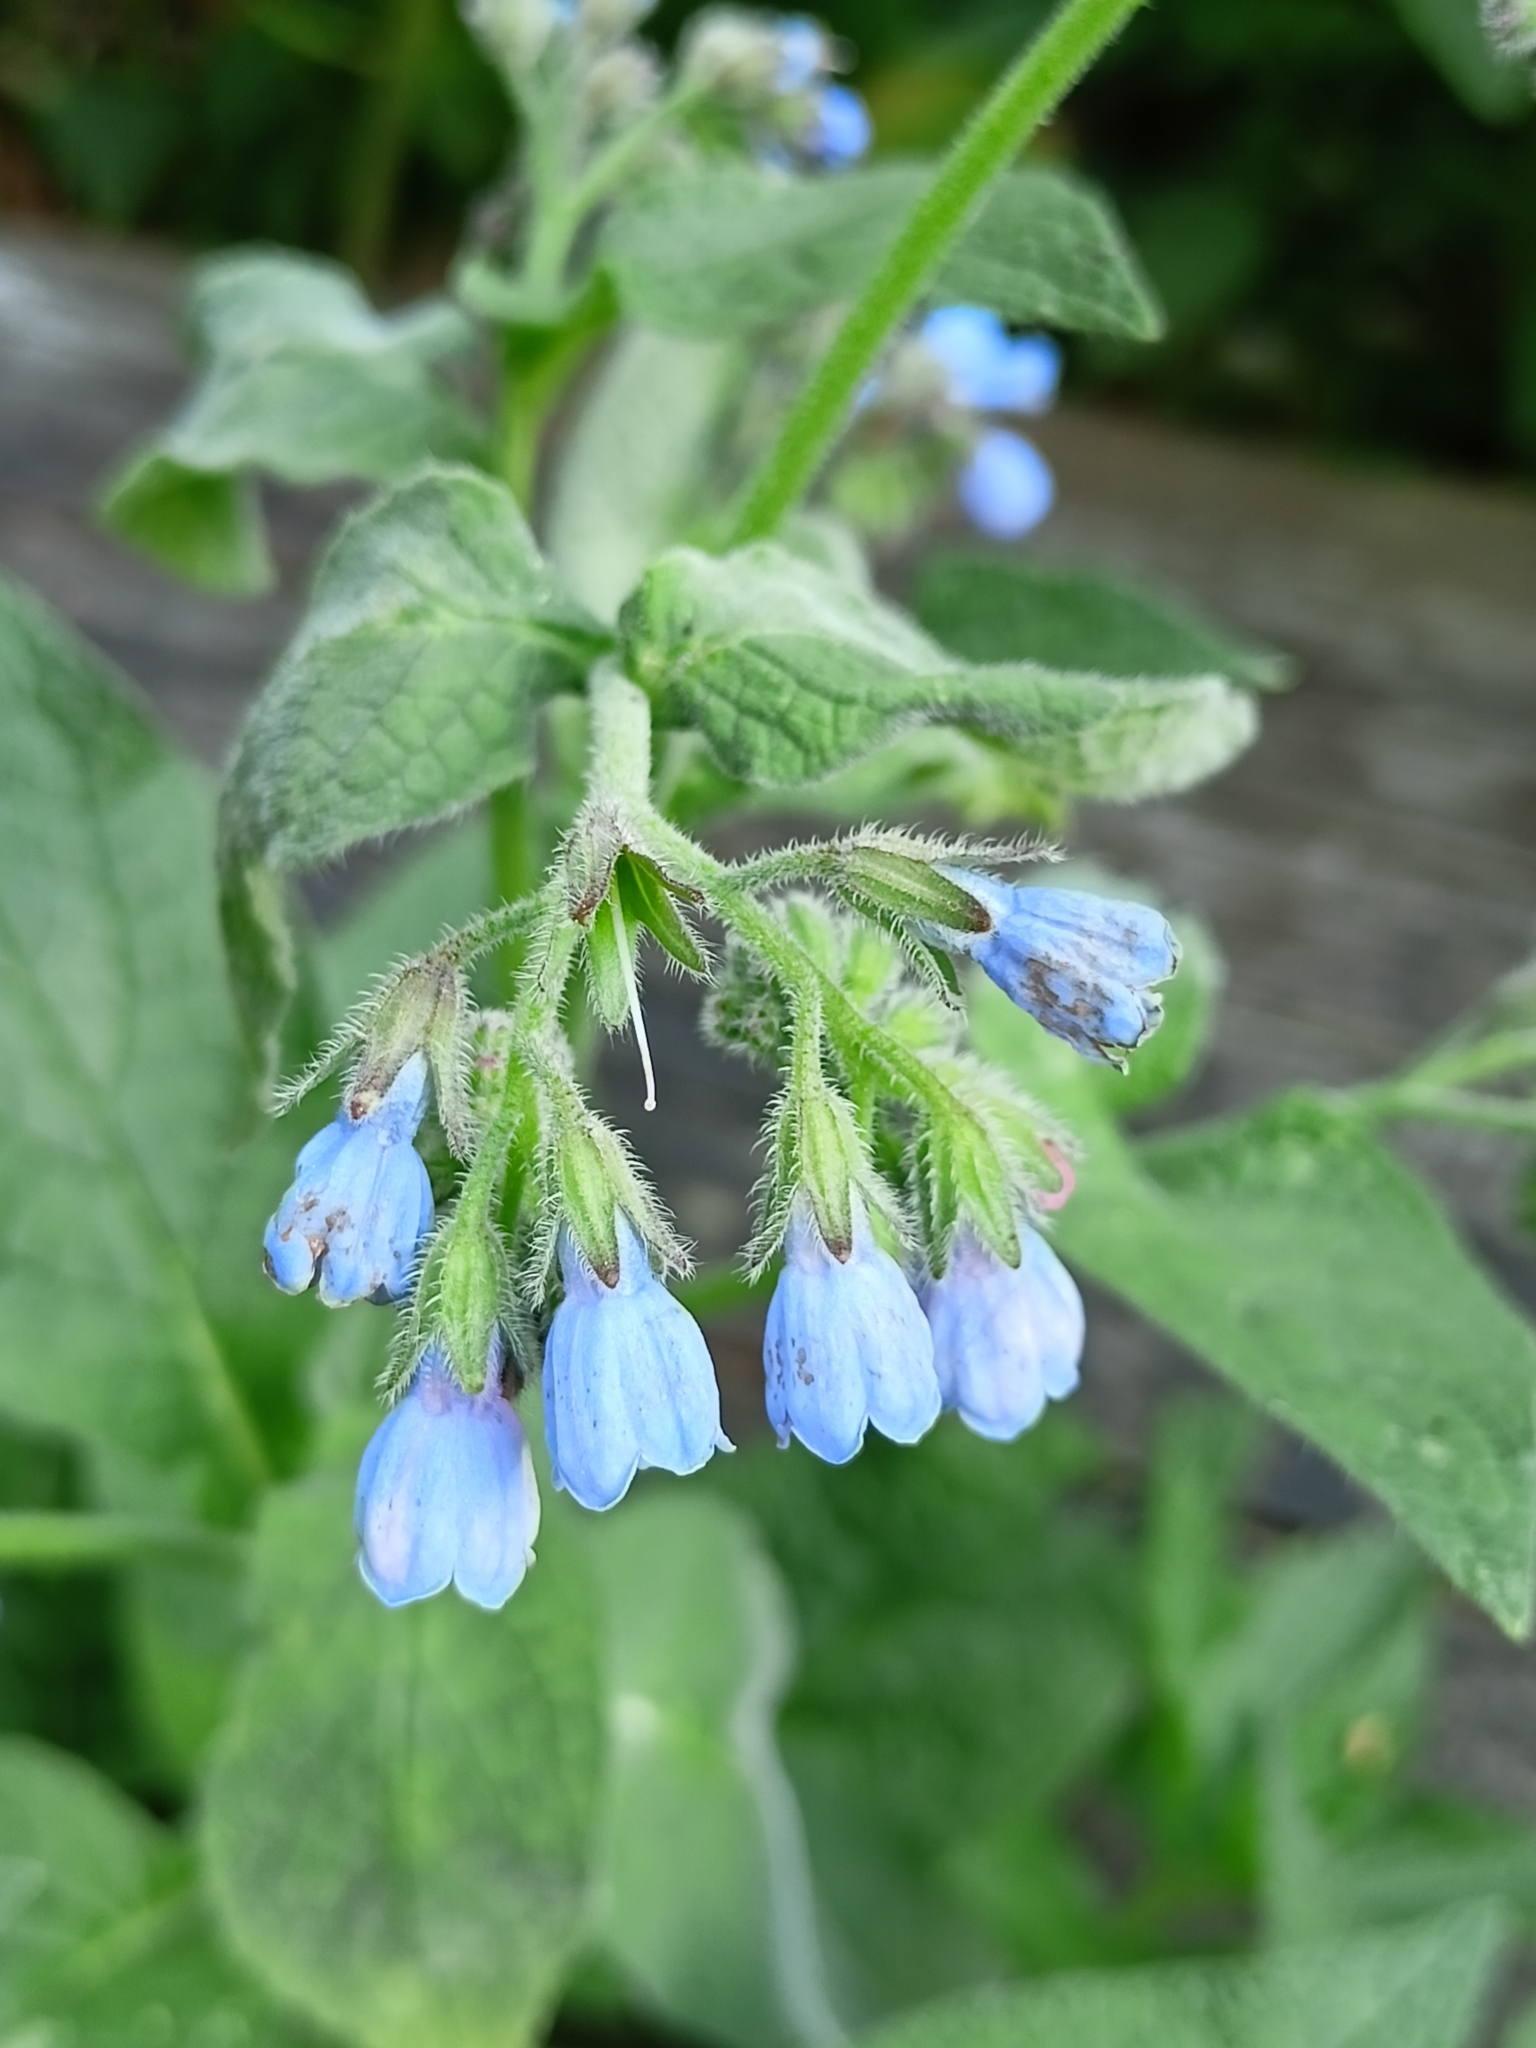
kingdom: Plantae
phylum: Tracheophyta
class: Magnoliopsida
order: Boraginales
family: Boraginaceae
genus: Symphytum
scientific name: Symphytum caucasicum
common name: Caucasian comfrey
